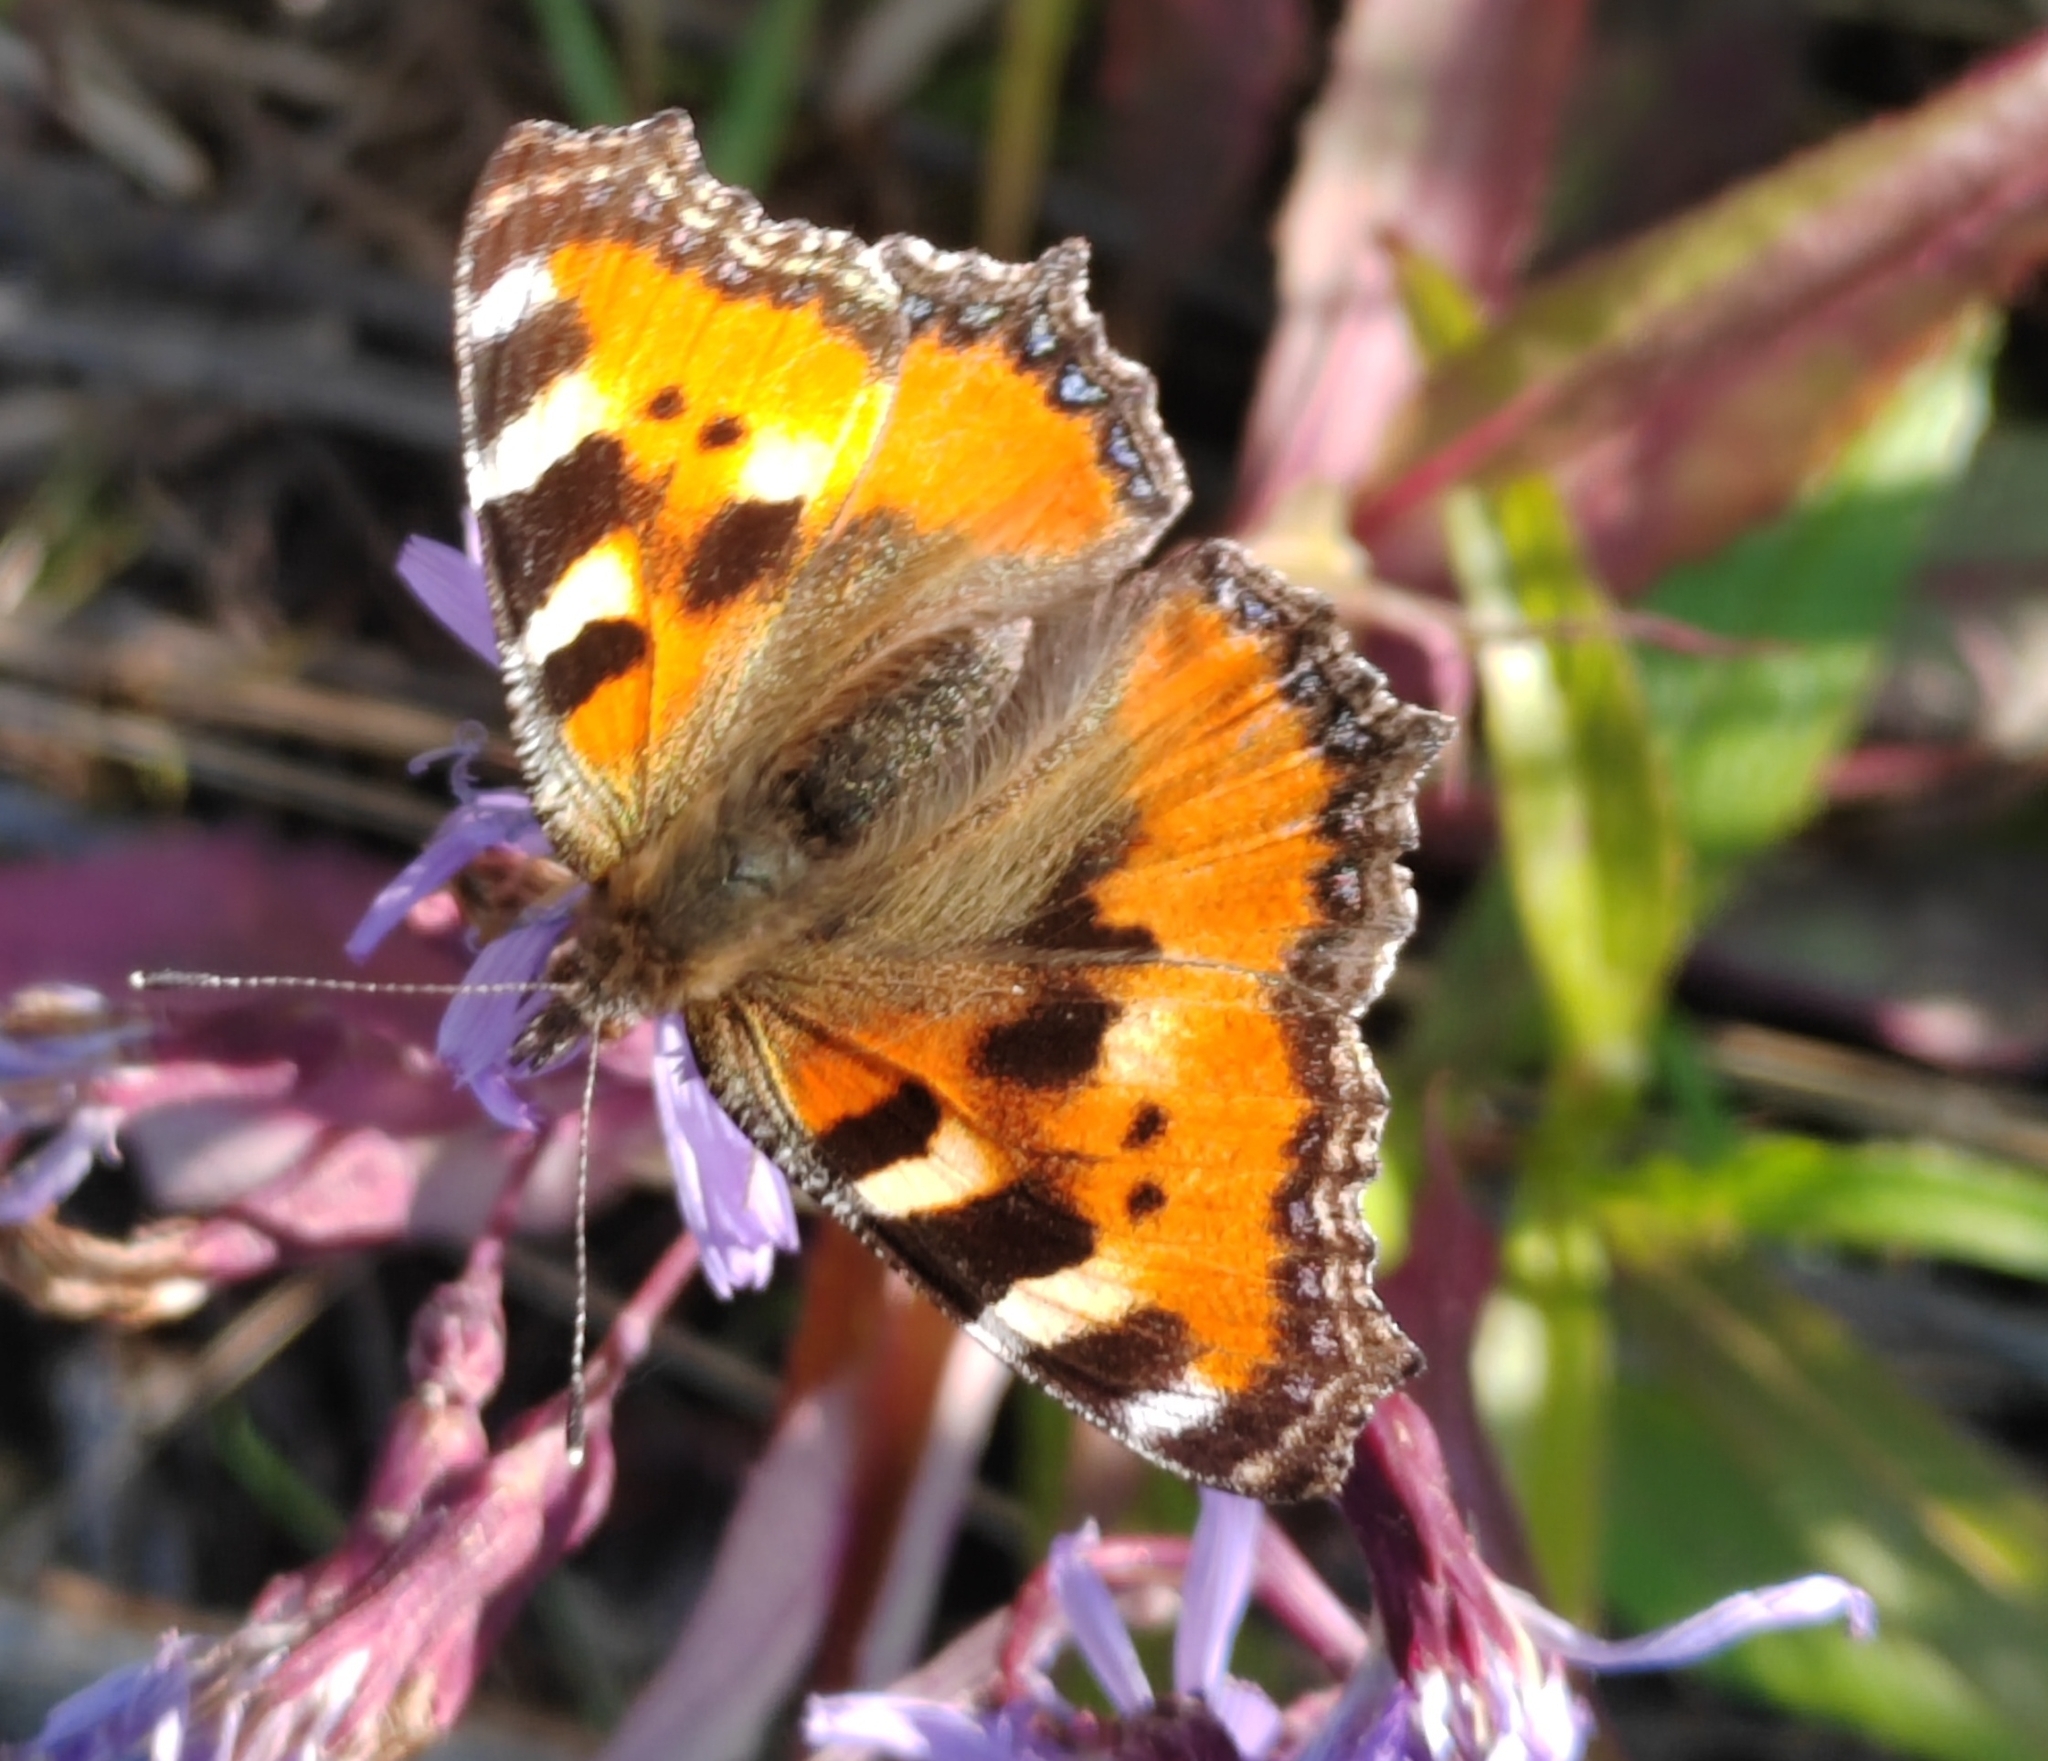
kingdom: Animalia
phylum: Arthropoda
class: Insecta
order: Lepidoptera
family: Nymphalidae
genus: Aglais
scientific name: Aglais urticae
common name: Small tortoiseshell
